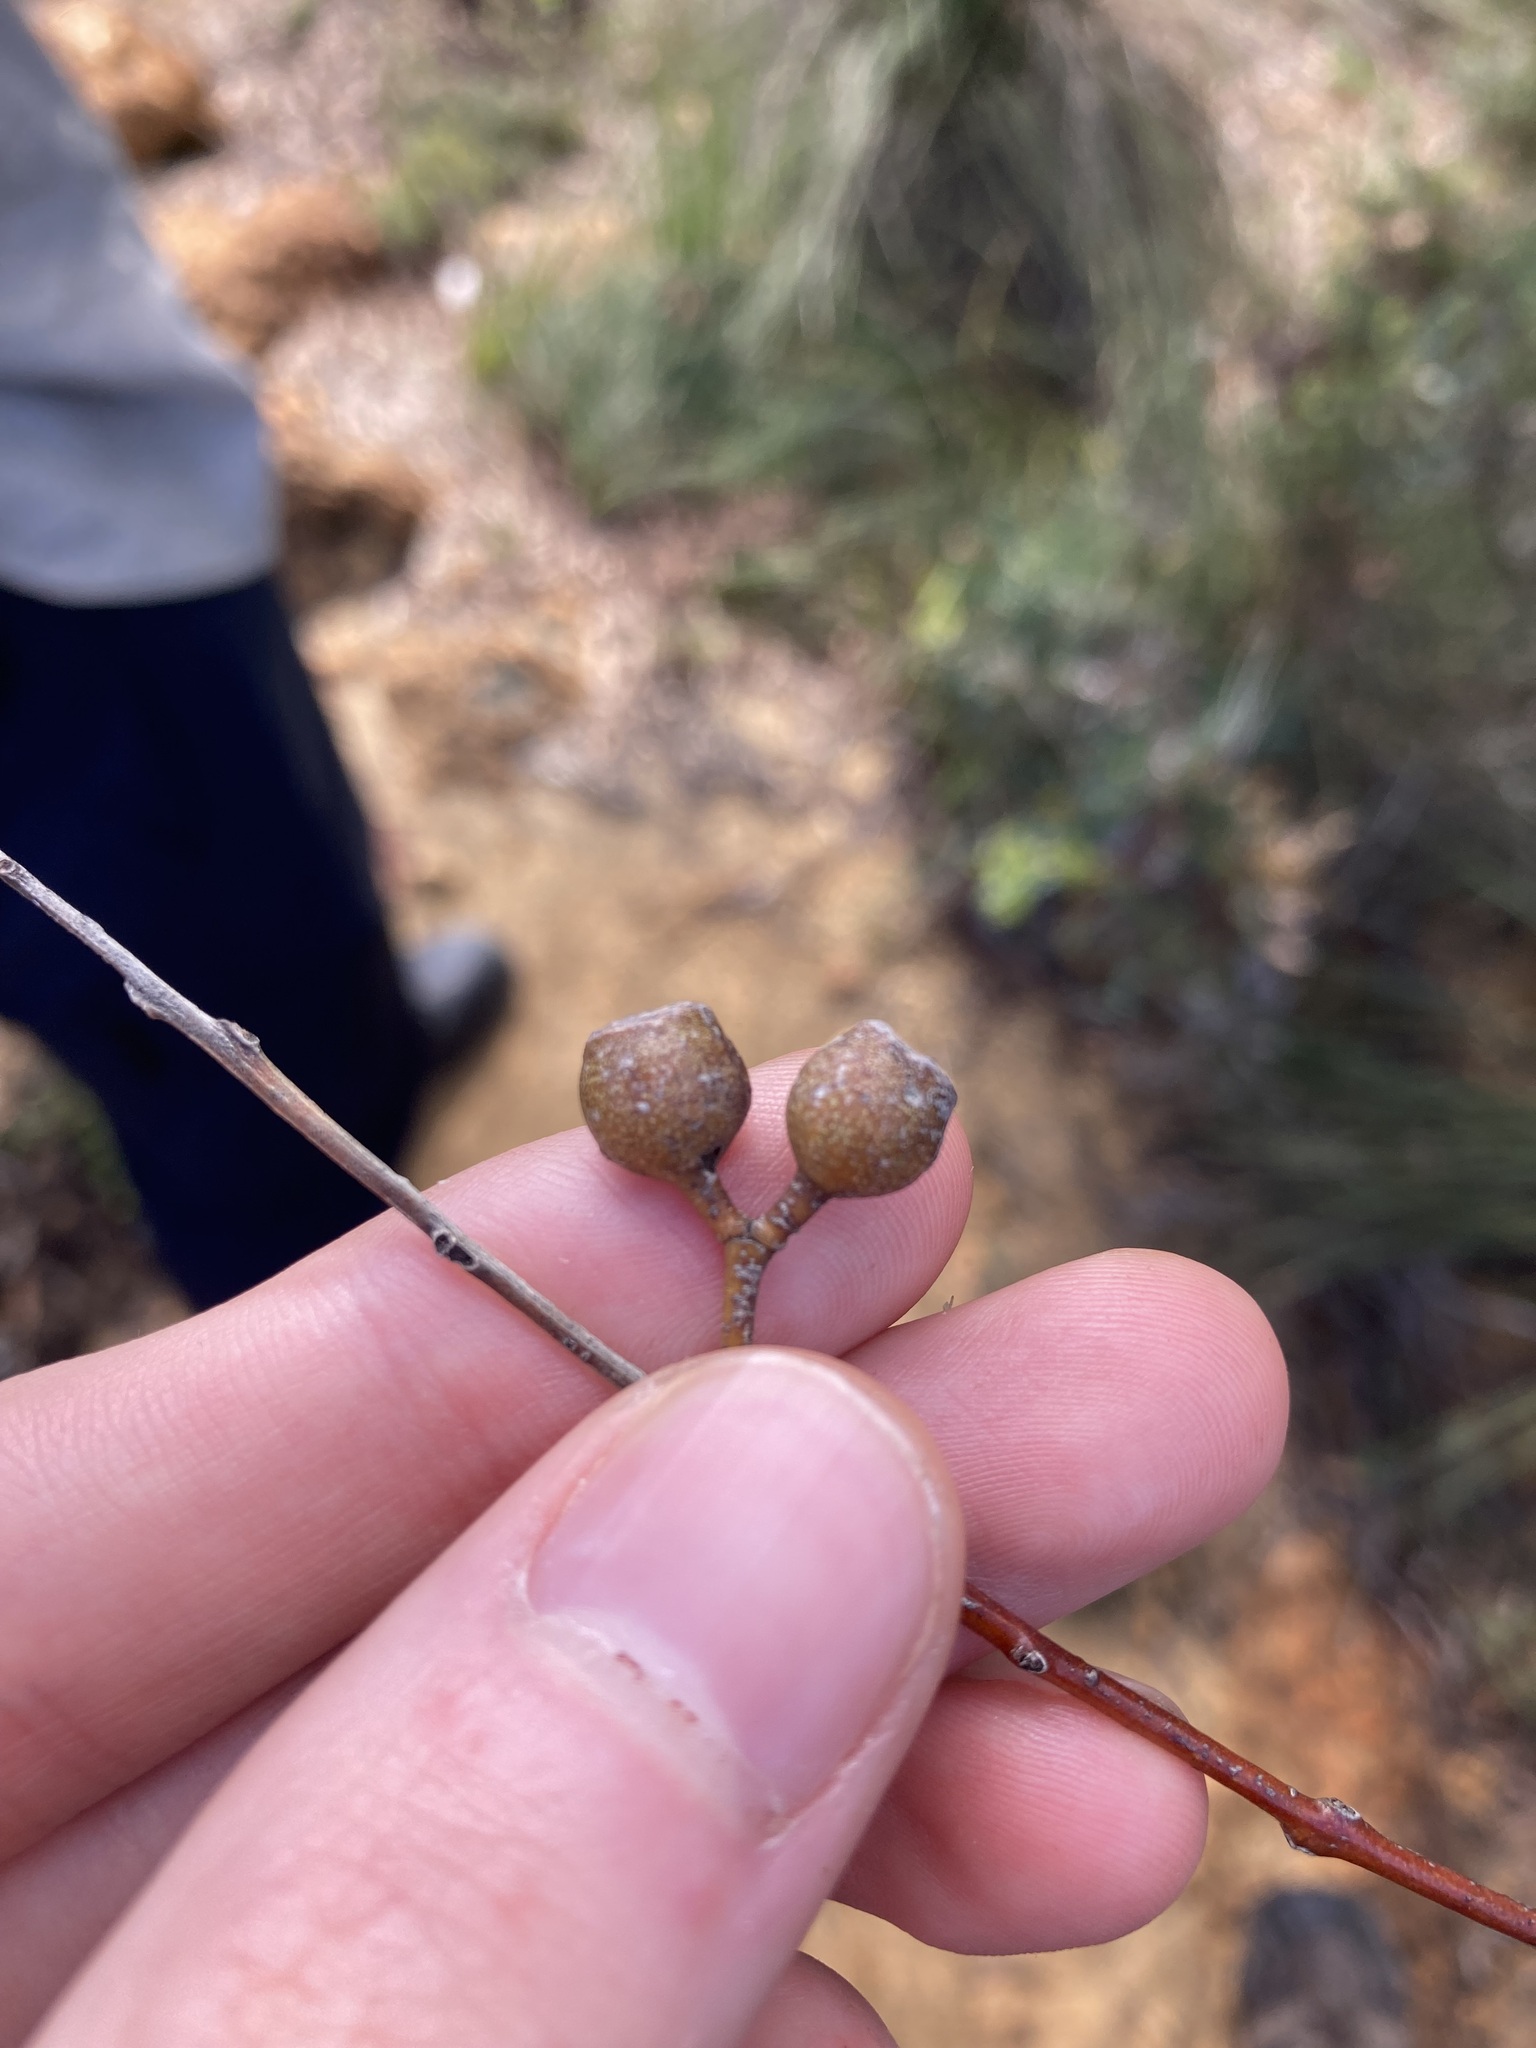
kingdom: Plantae
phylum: Tracheophyta
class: Magnoliopsida
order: Myrtales
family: Myrtaceae
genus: Eucalyptus
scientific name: Eucalyptus suberea
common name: Cork mallee
